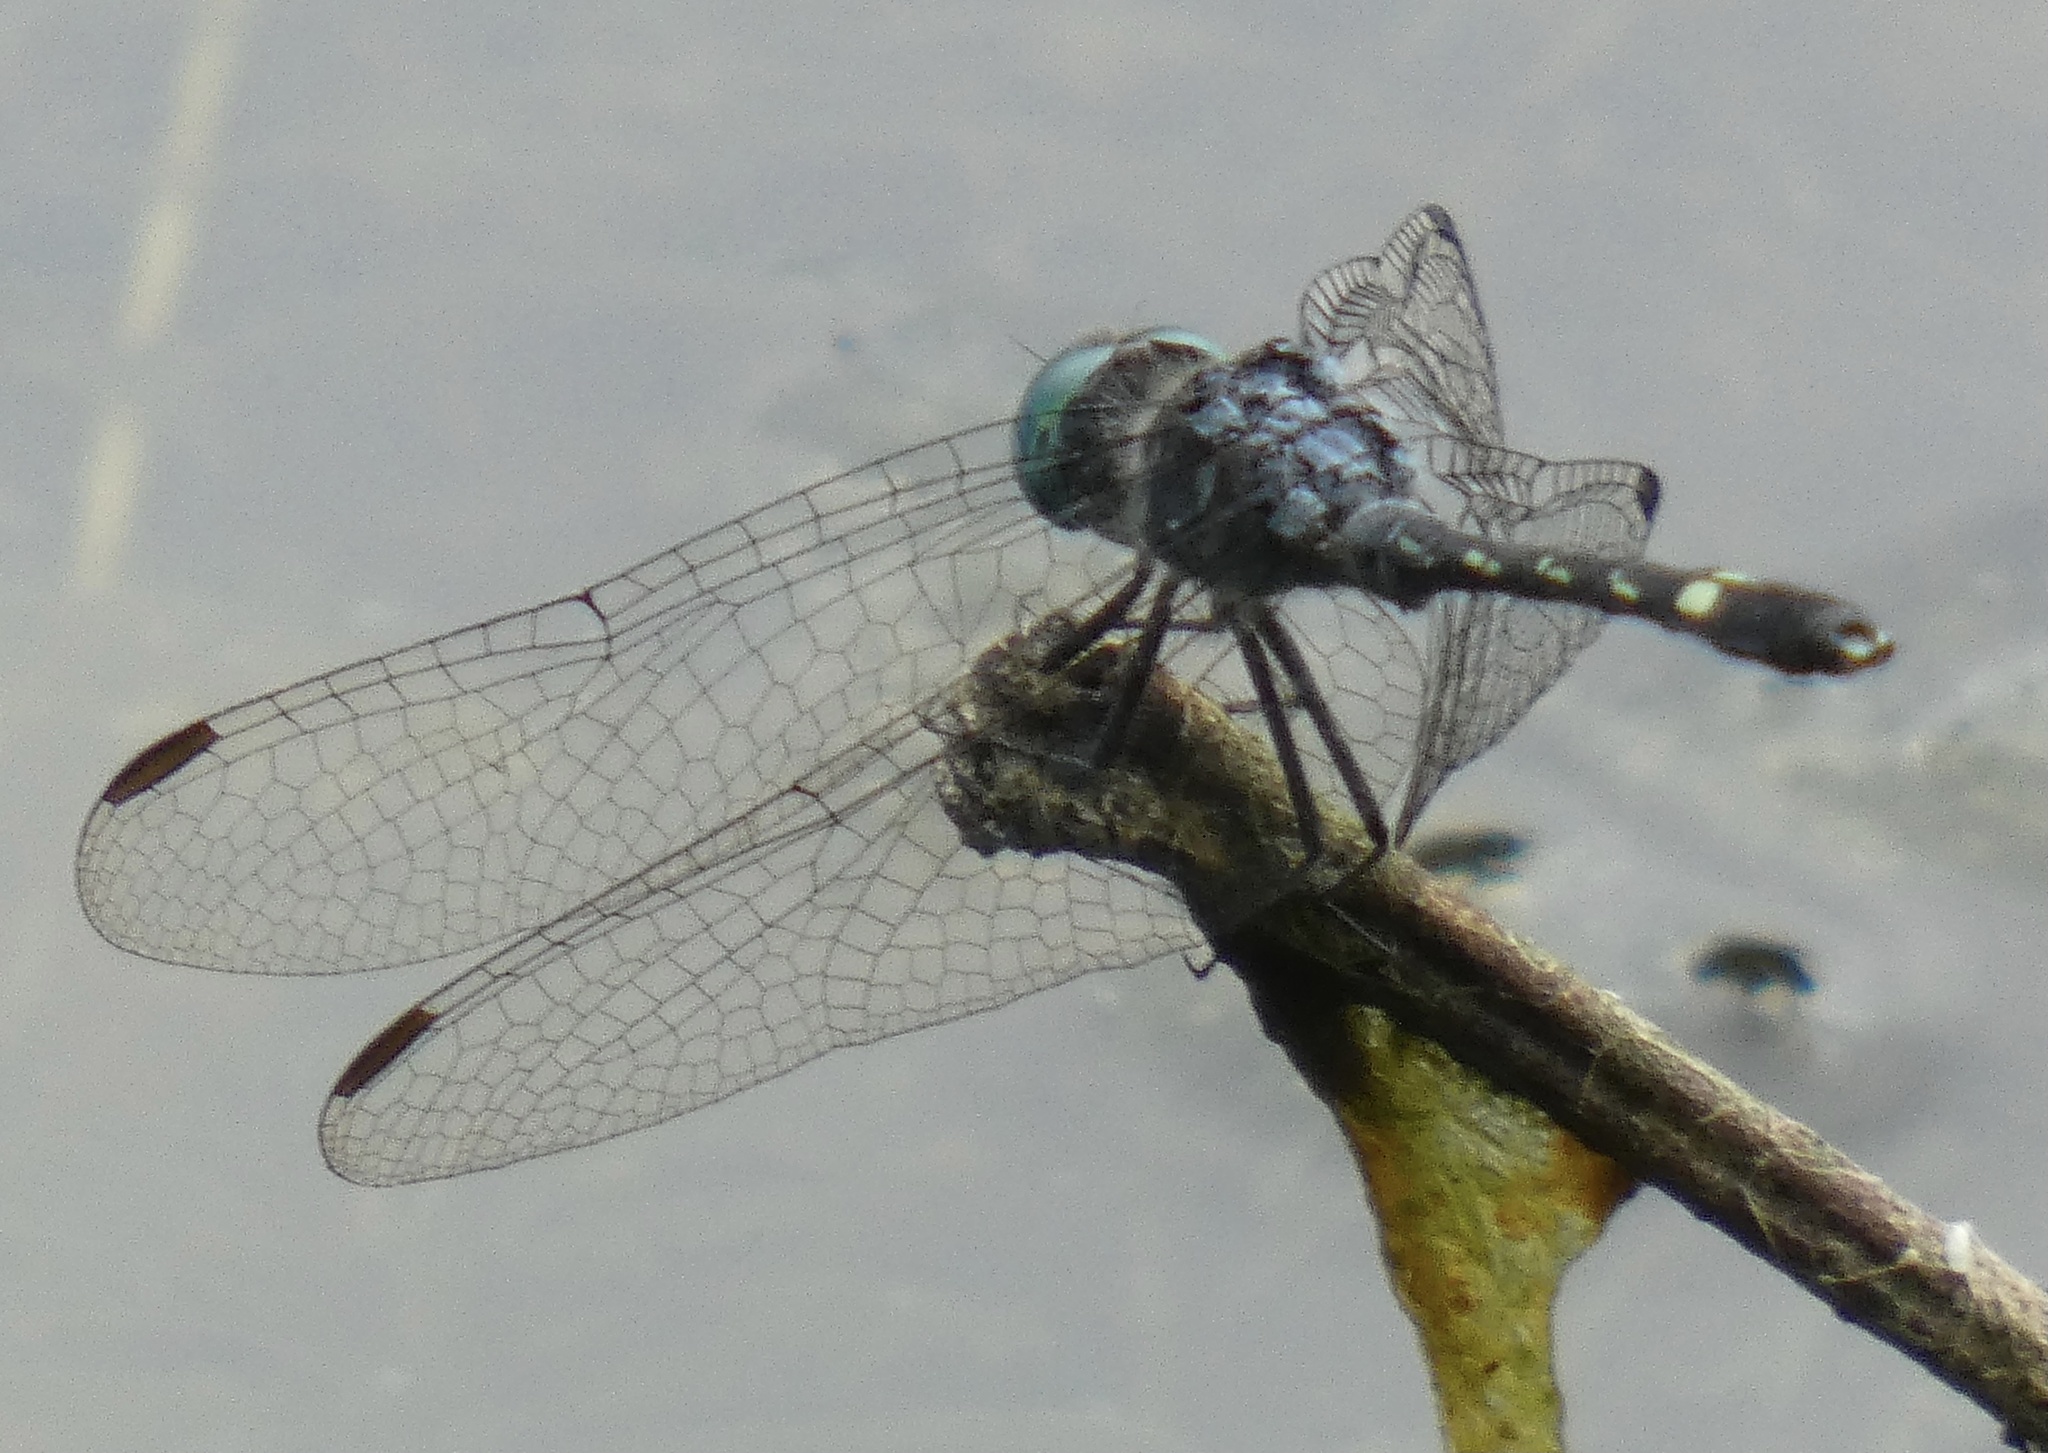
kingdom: Animalia
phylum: Arthropoda
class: Insecta
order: Odonata
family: Libellulidae
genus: Micrathyria
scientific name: Micrathyria hesperis
